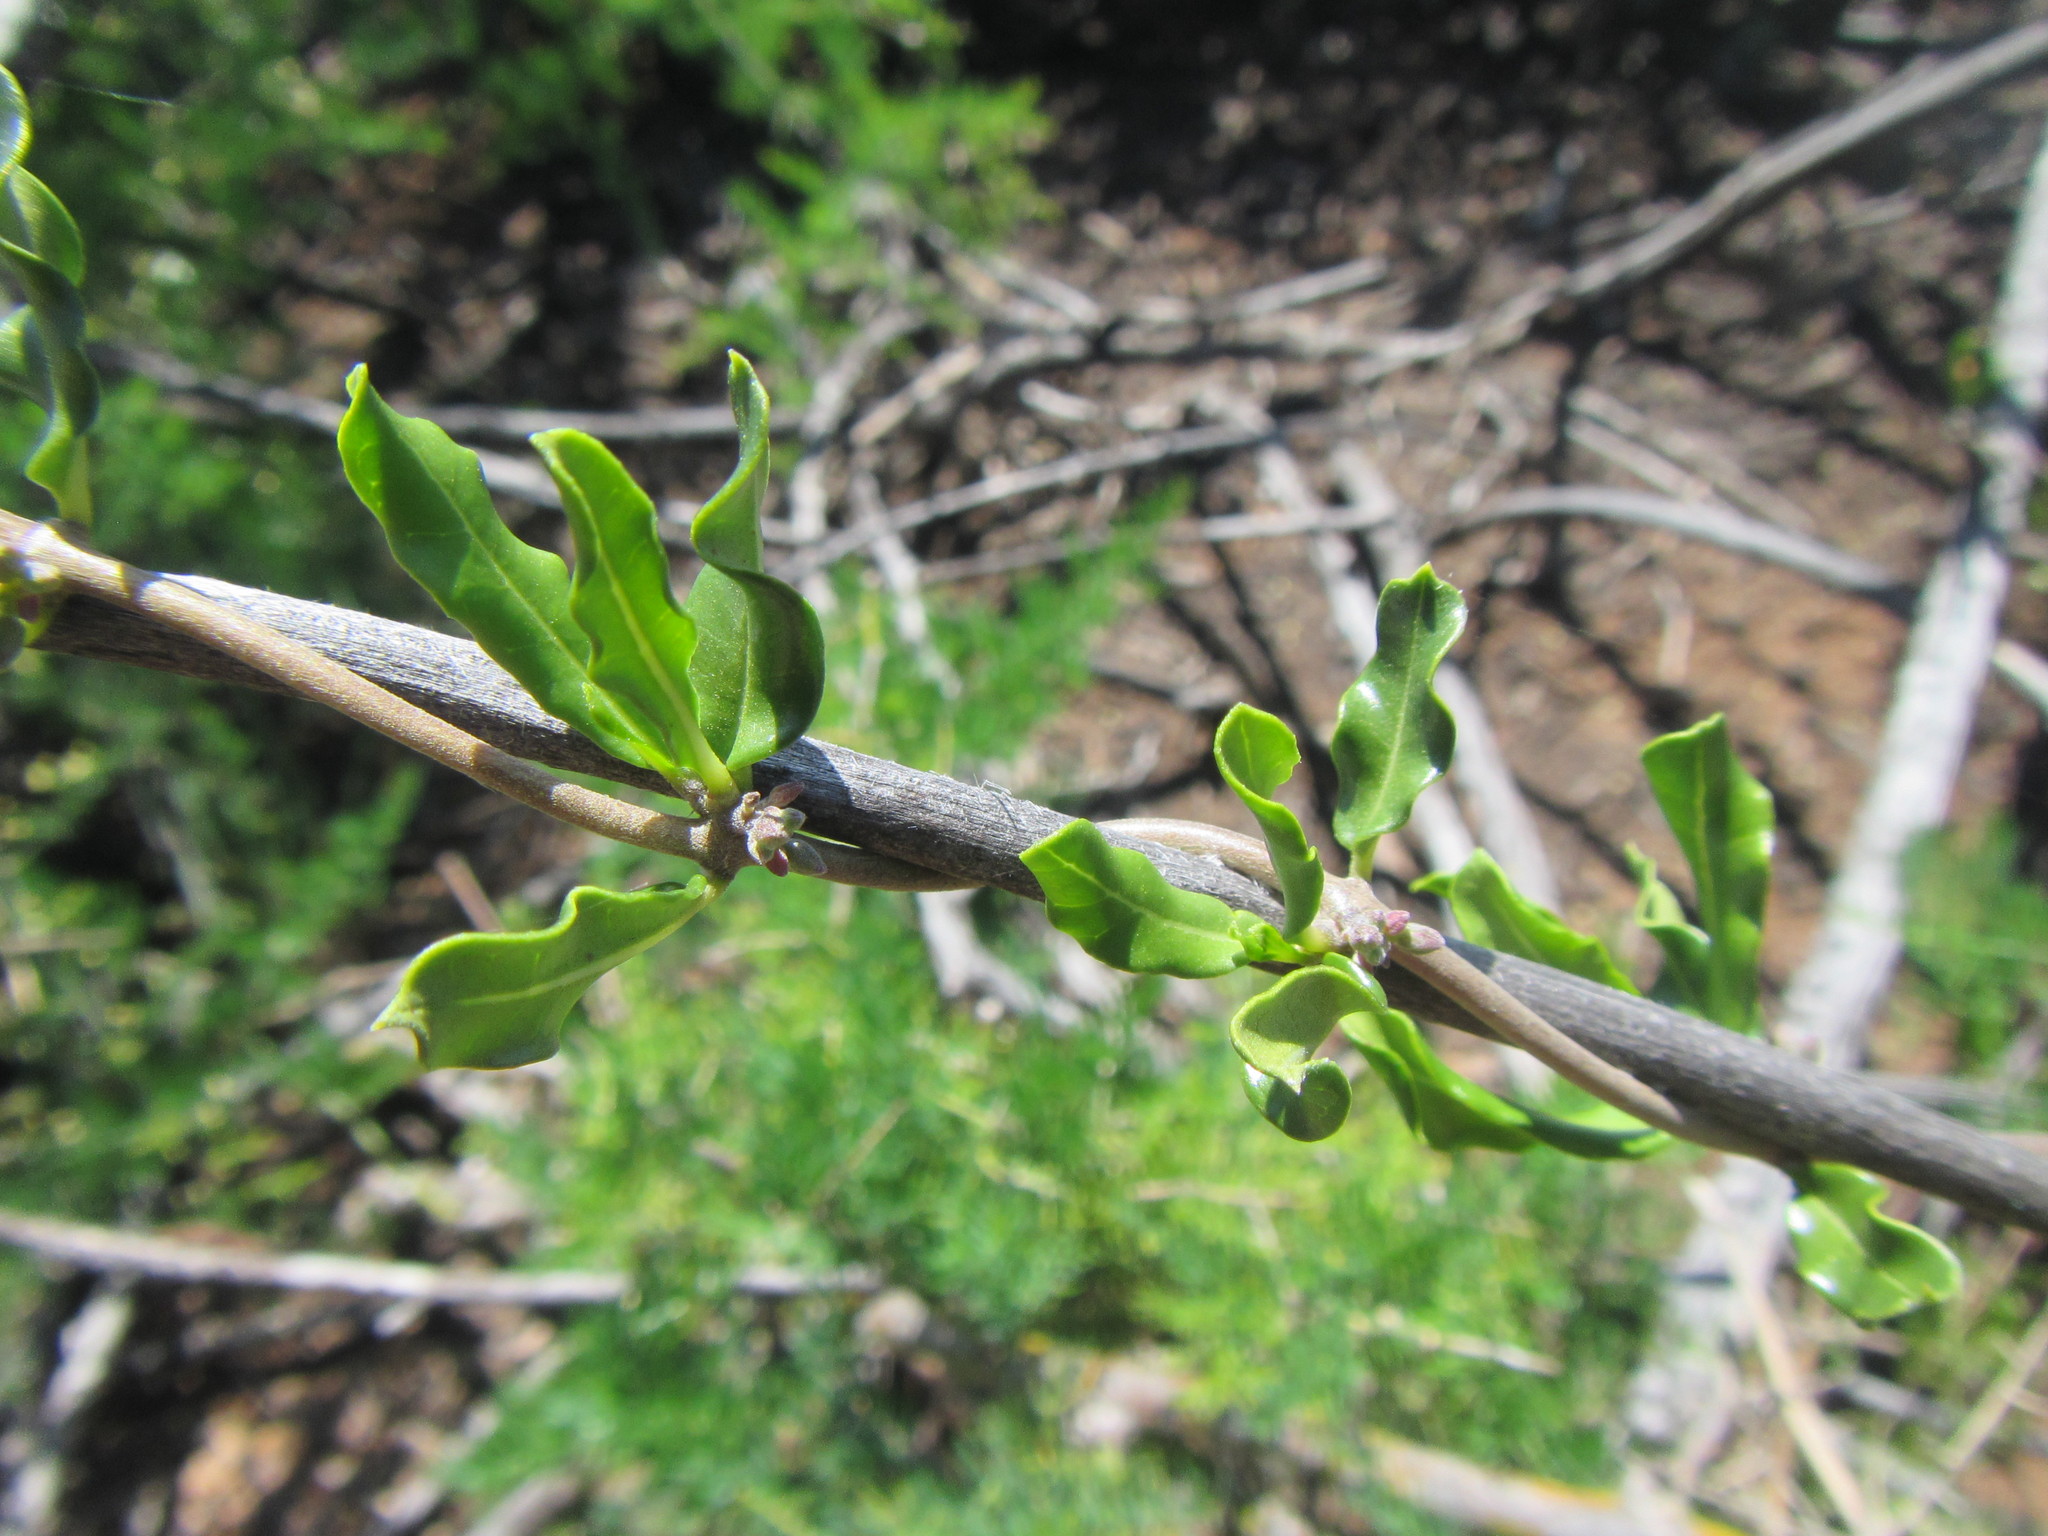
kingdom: Plantae
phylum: Tracheophyta
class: Magnoliopsida
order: Gentianales
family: Apocynaceae
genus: Fockea
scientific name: Fockea edulis
